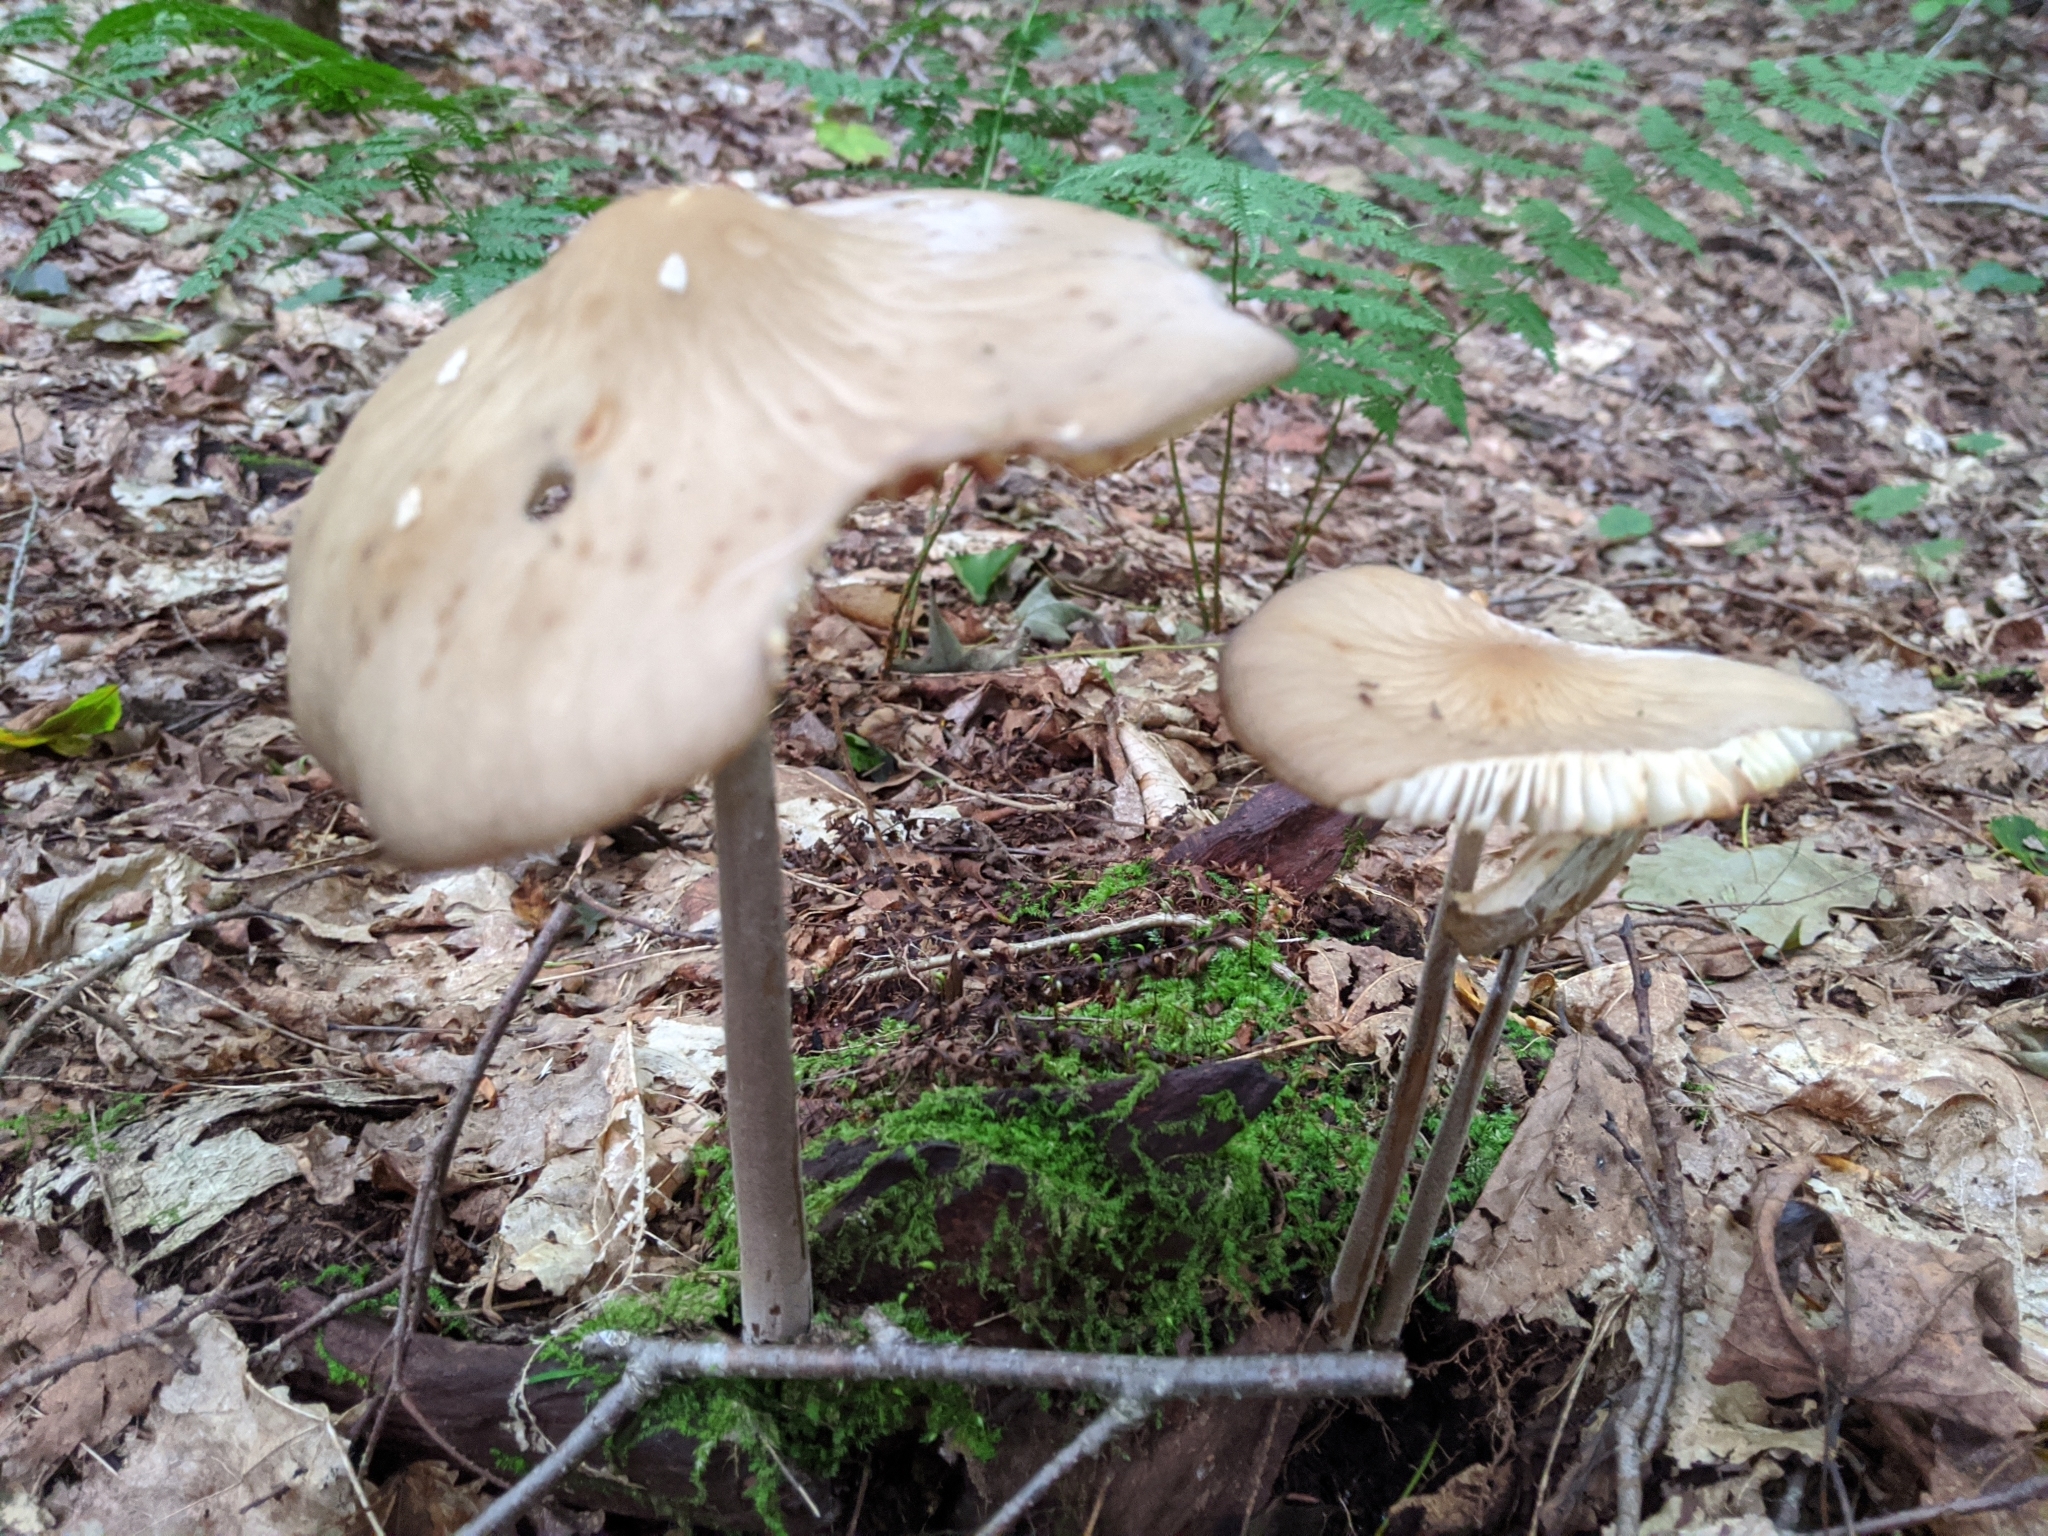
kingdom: Fungi
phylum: Basidiomycota
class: Agaricomycetes
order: Agaricales
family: Physalacriaceae
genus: Hymenopellis
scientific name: Hymenopellis furfuracea
